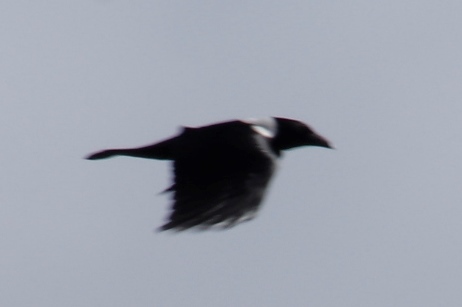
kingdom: Animalia
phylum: Chordata
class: Aves
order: Passeriformes
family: Corvidae
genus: Corvus
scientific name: Corvus albus
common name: Pied crow
